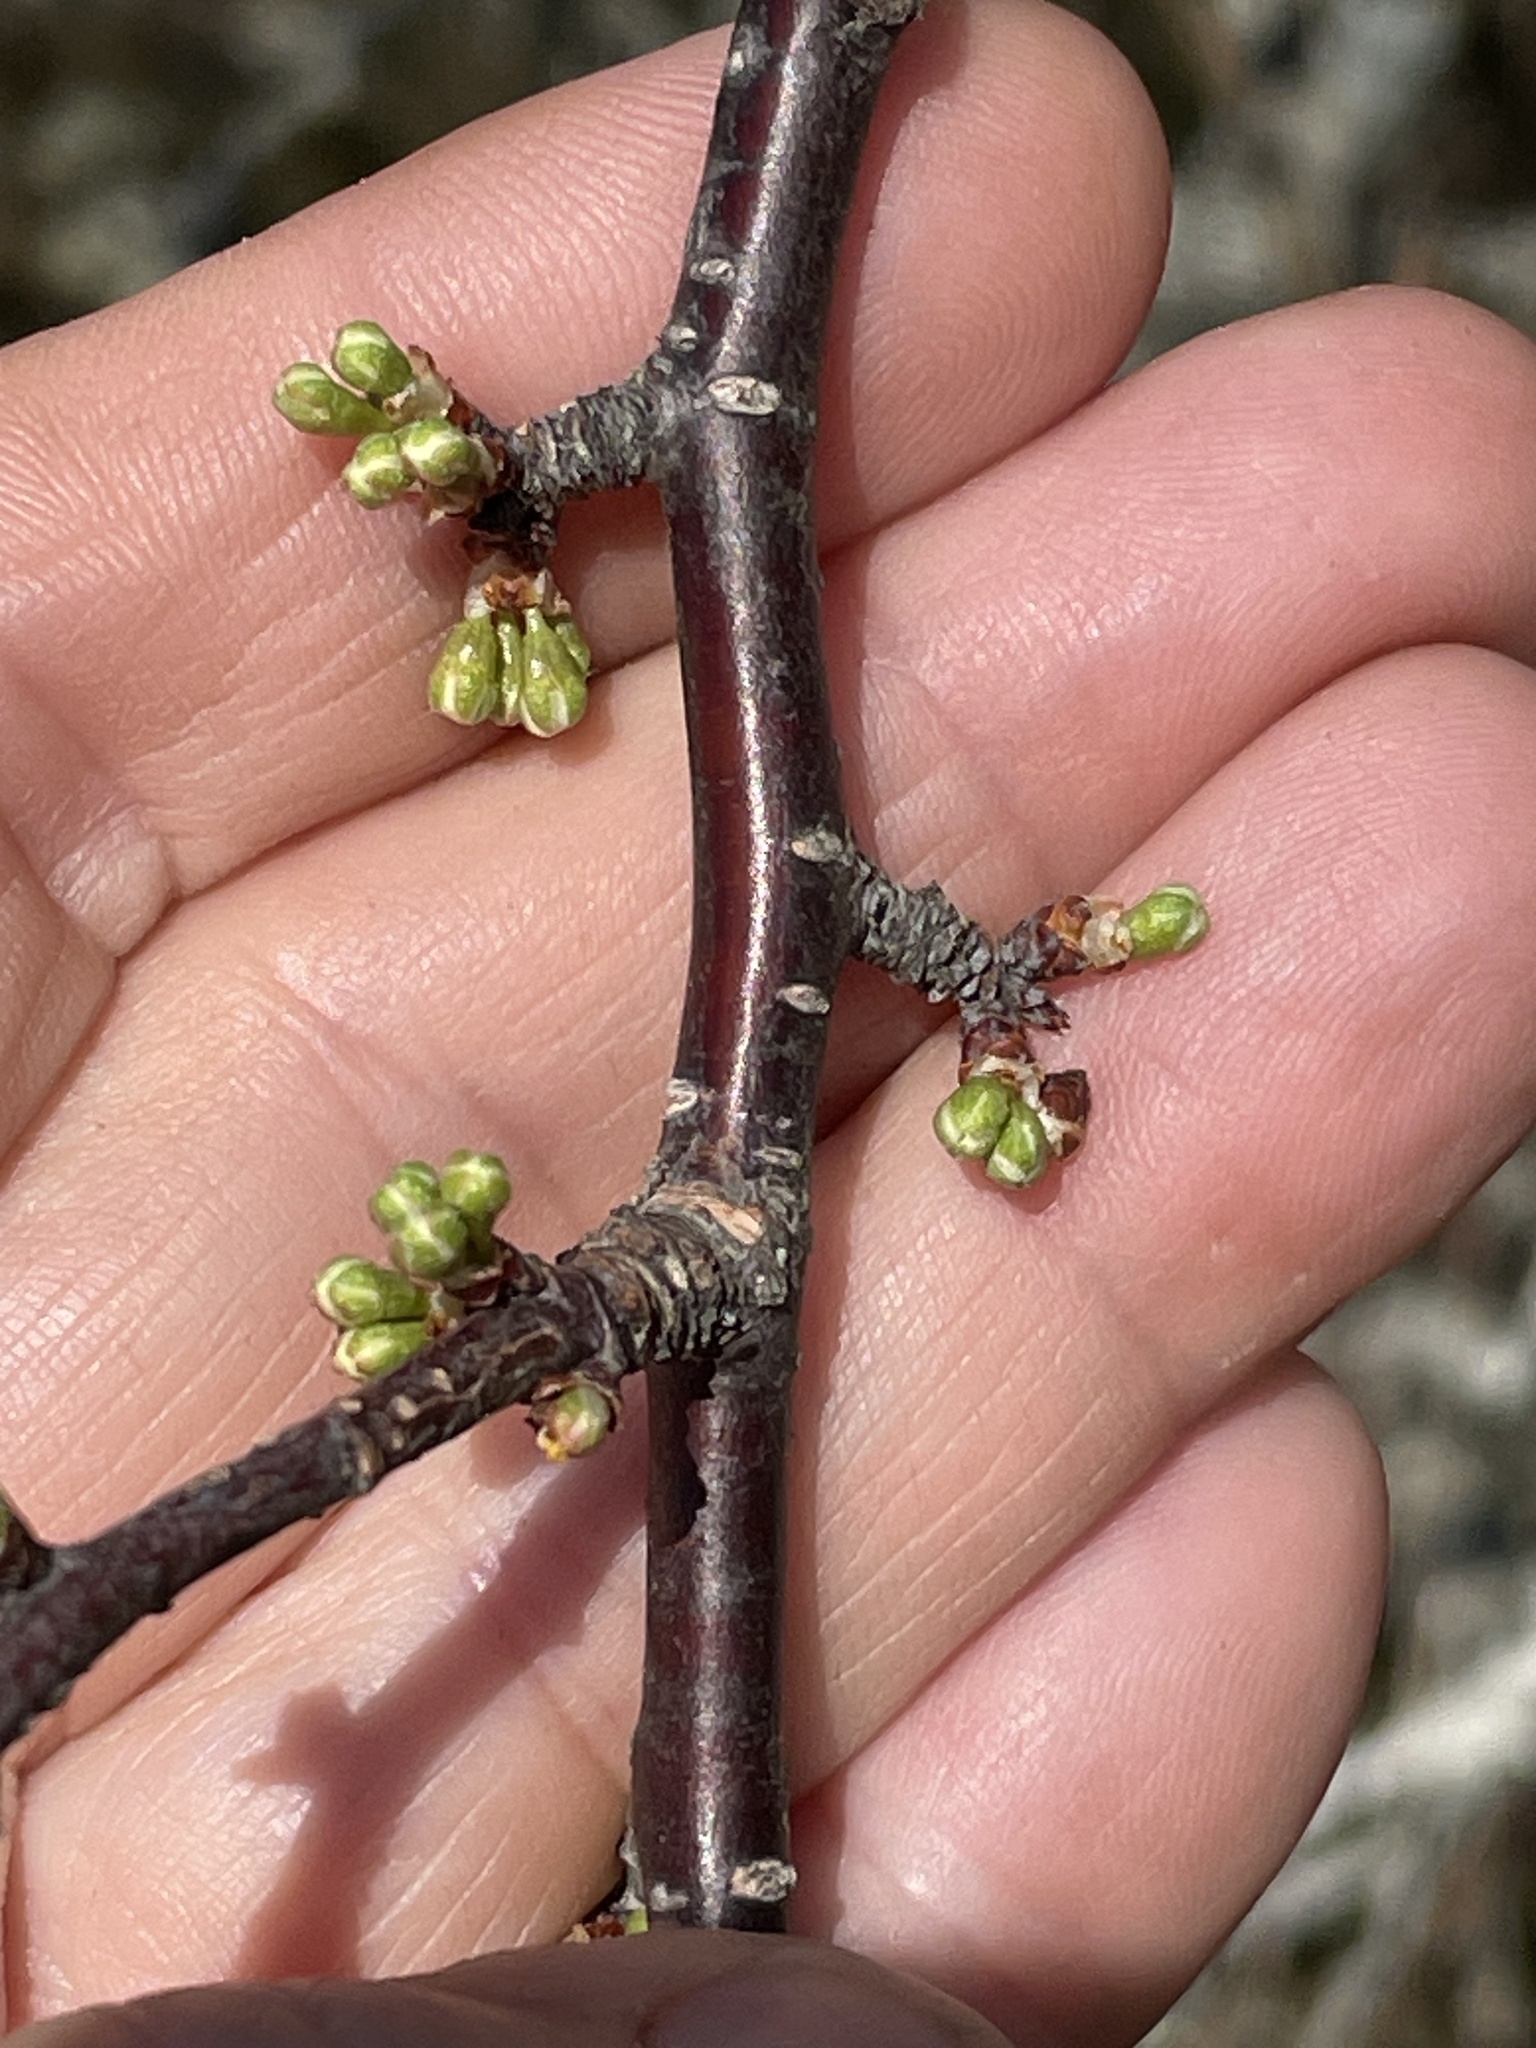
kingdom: Plantae
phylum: Tracheophyta
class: Magnoliopsida
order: Rosales
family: Rosaceae
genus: Prunus
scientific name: Prunus angustifolia
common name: Cherokee plum
